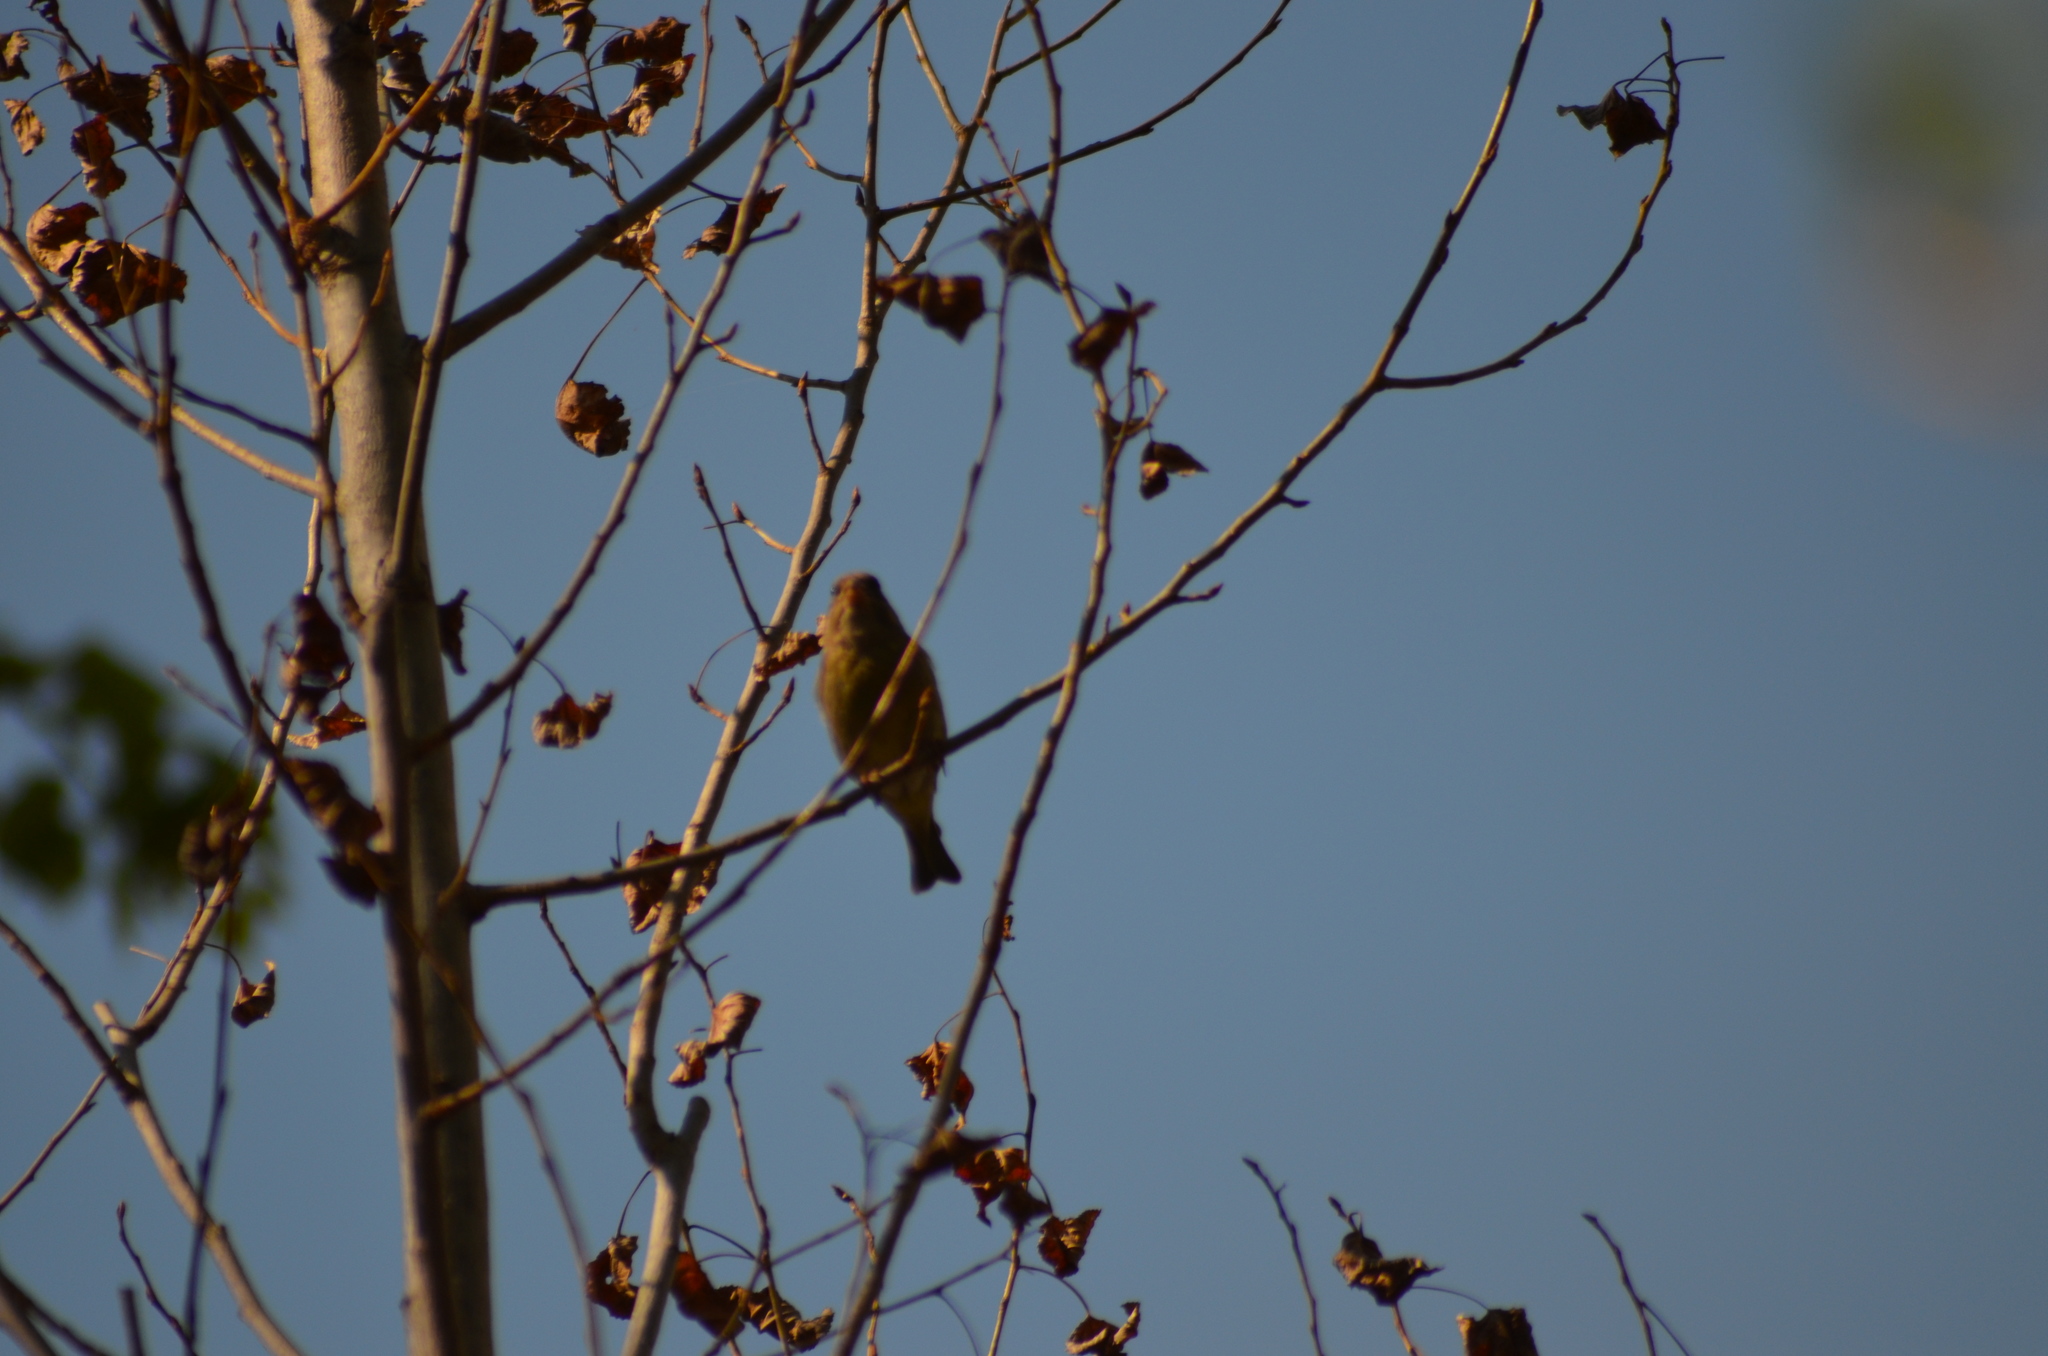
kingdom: Plantae
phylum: Tracheophyta
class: Liliopsida
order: Poales
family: Poaceae
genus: Chloris
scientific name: Chloris chloris
